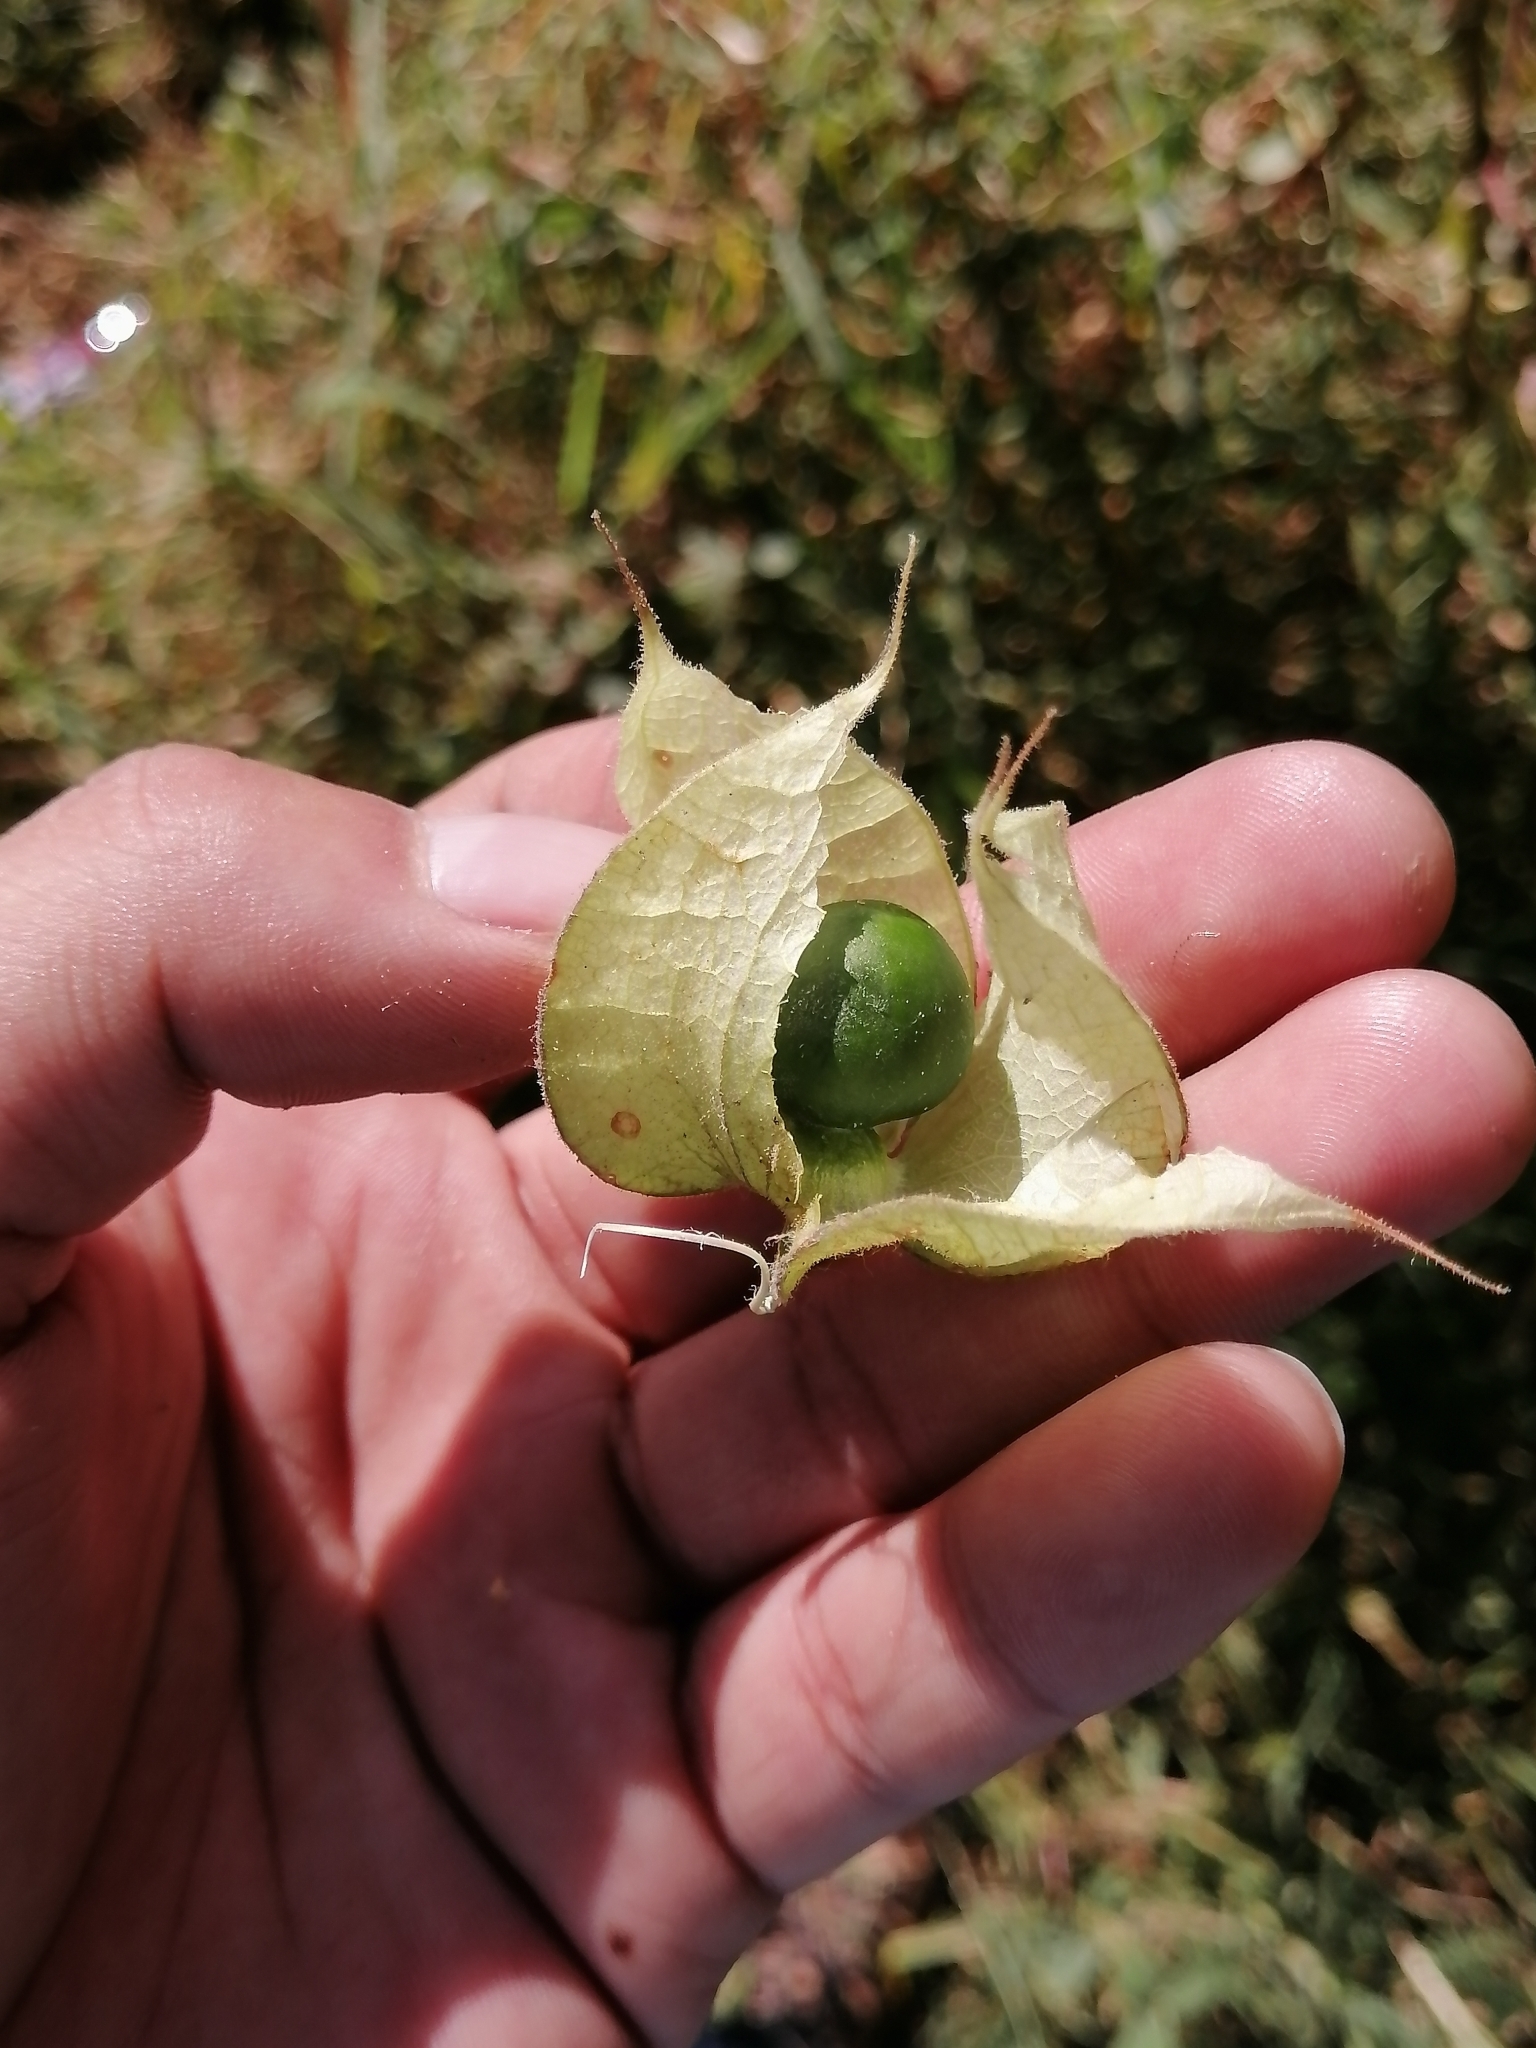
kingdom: Plantae
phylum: Tracheophyta
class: Magnoliopsida
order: Solanales
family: Solanaceae
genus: Physalis
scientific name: Physalis nicandroides
